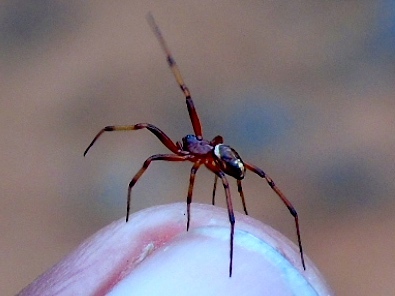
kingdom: Animalia
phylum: Arthropoda
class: Arachnida
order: Araneae
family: Theridiidae
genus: Steatoda
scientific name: Steatoda
